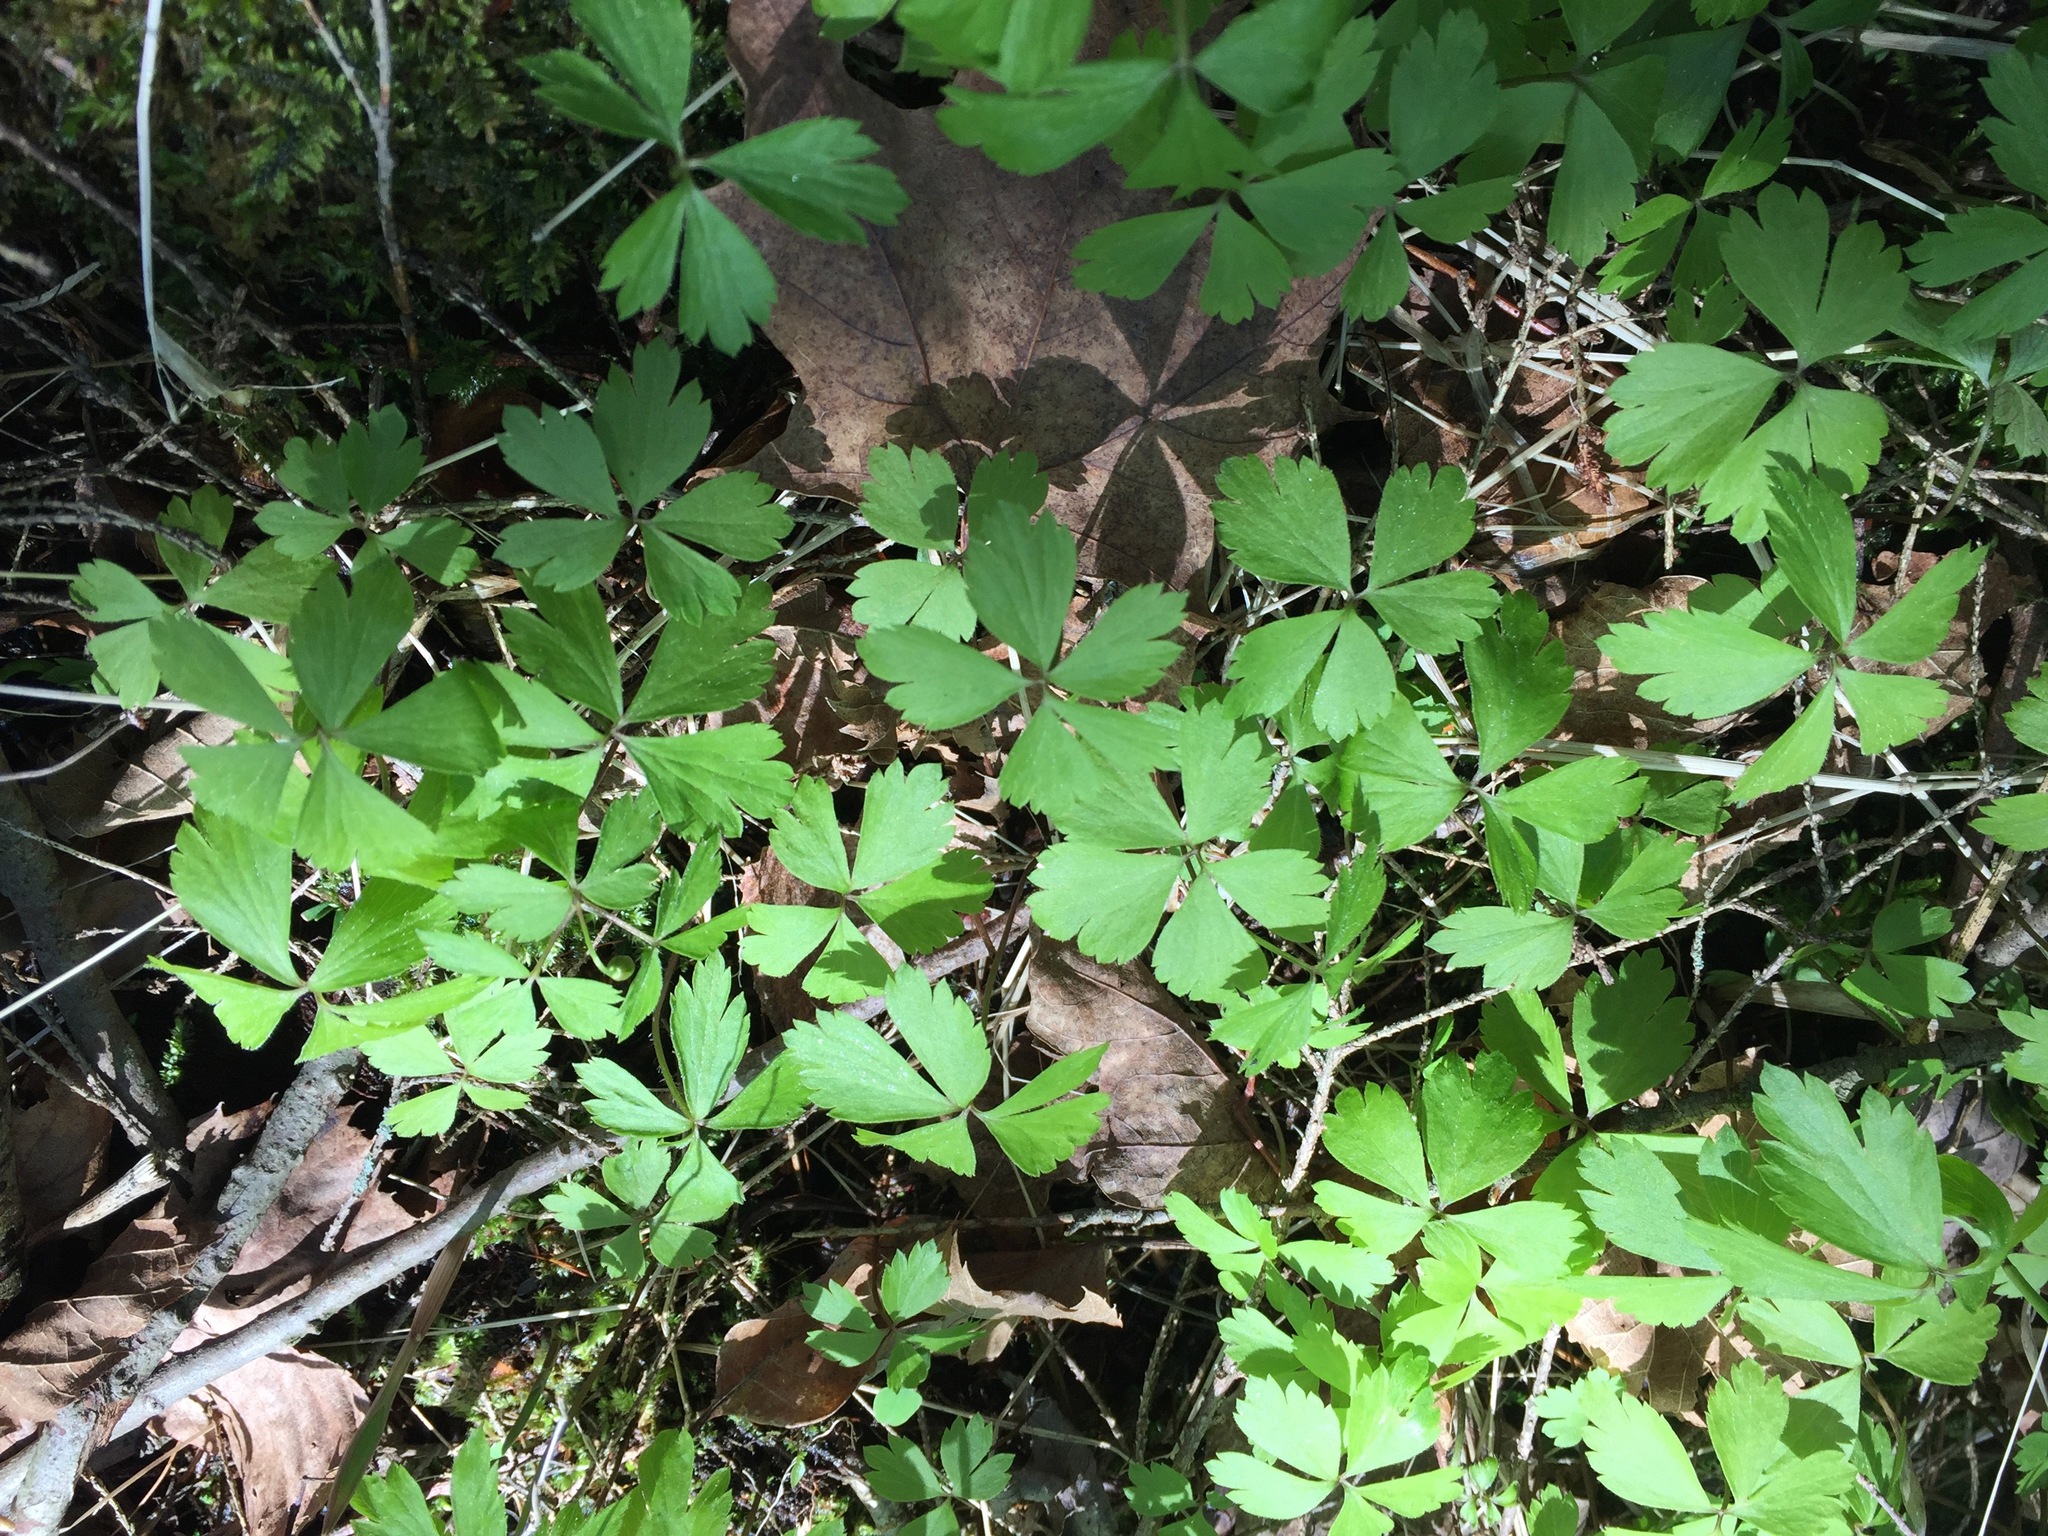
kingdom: Plantae
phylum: Tracheophyta
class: Magnoliopsida
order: Ranunculales
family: Ranunculaceae
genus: Anemone
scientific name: Anemone quinquefolia
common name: Wood anemone
